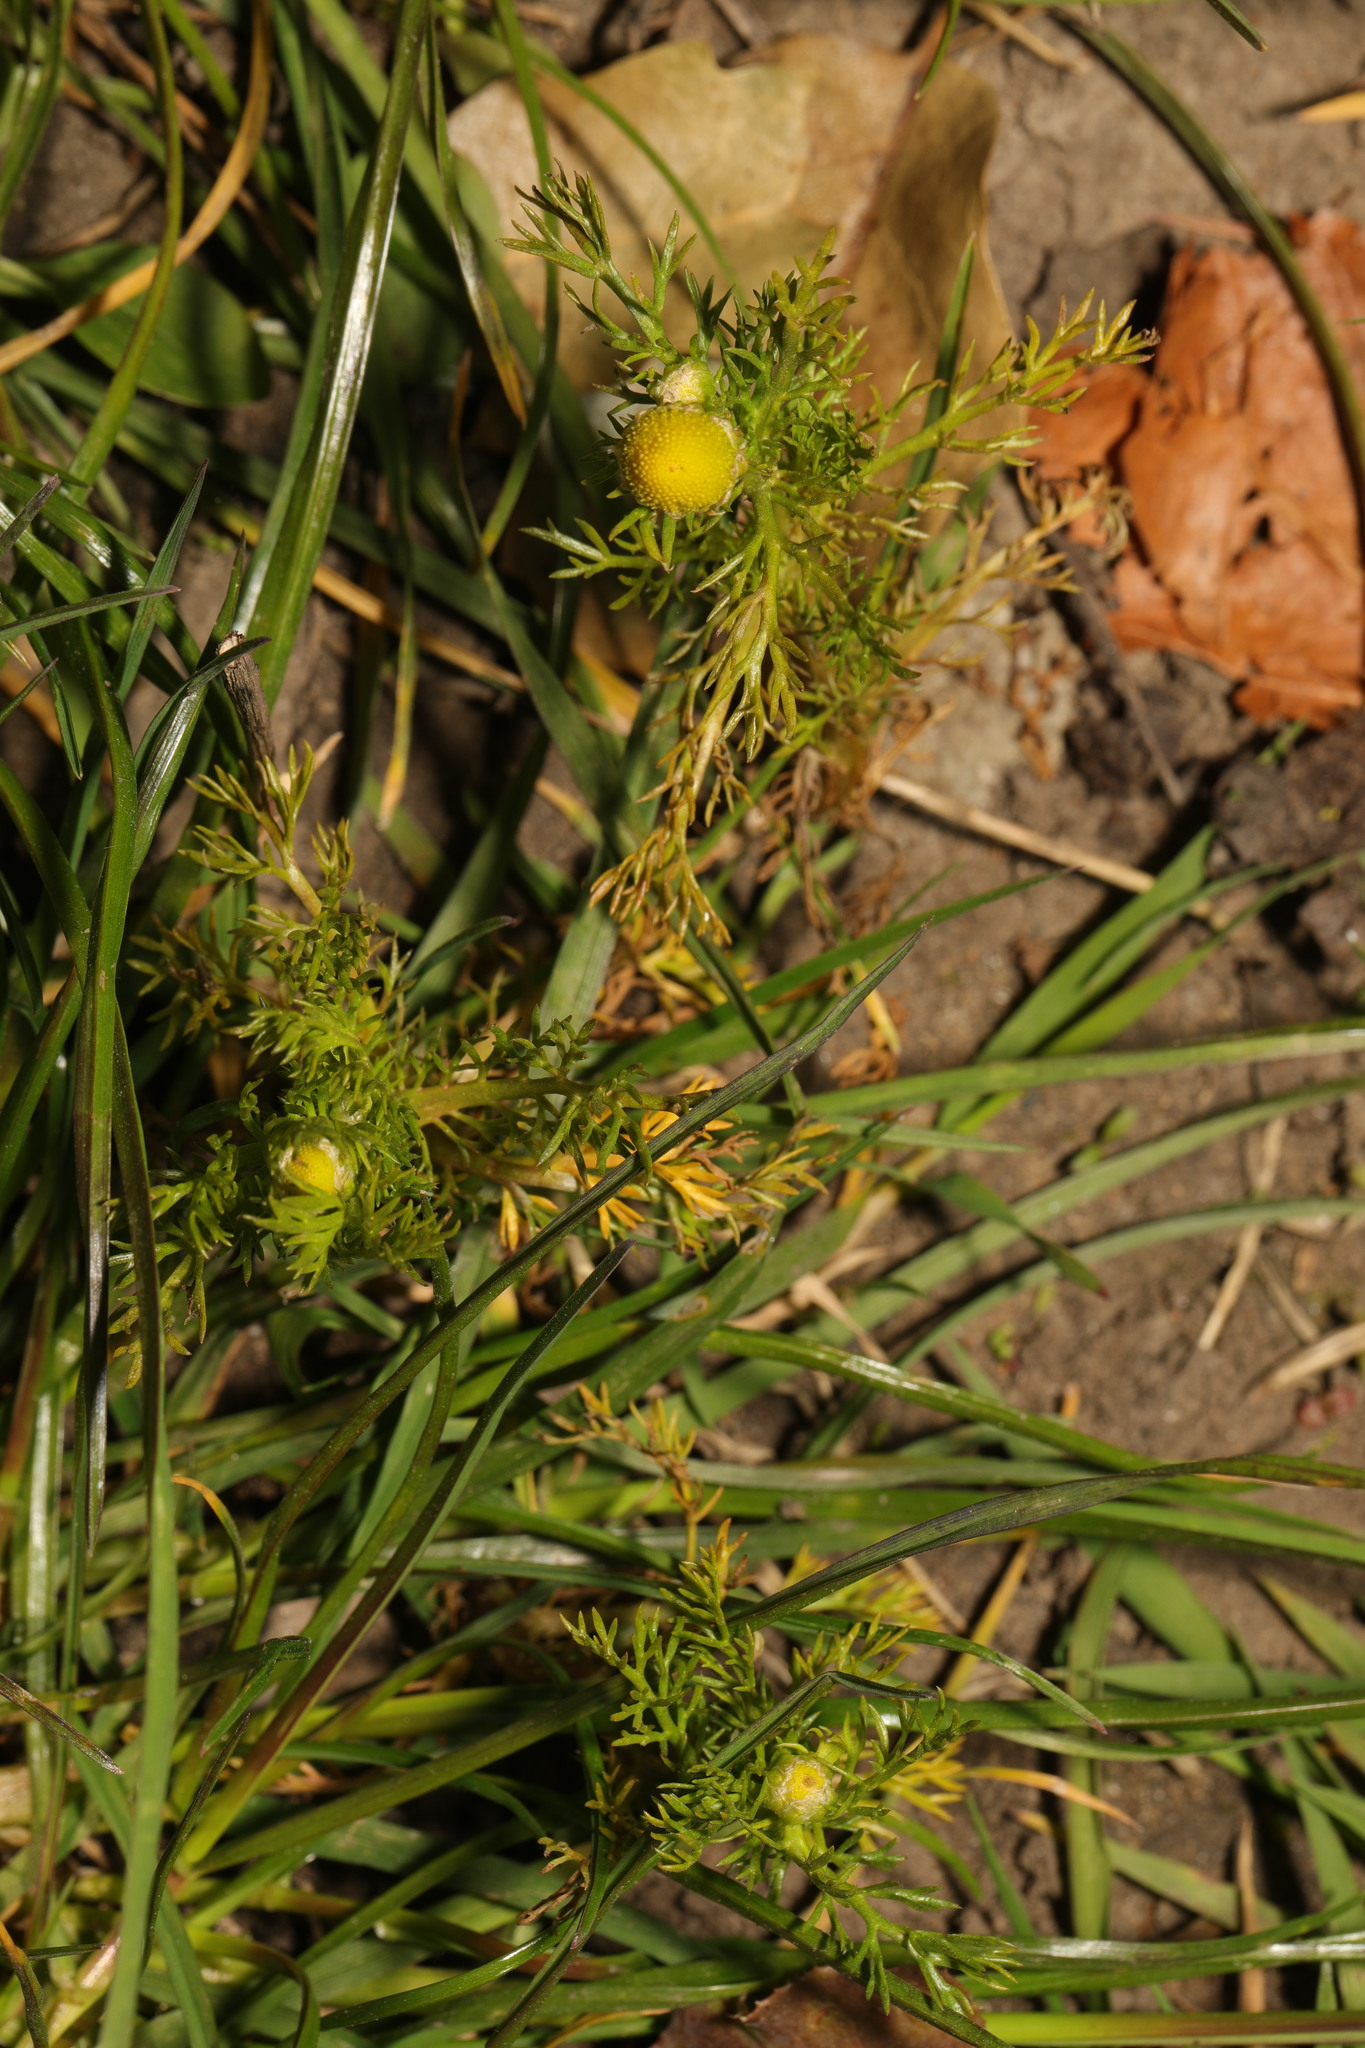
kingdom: Plantae
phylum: Tracheophyta
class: Magnoliopsida
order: Asterales
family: Asteraceae
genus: Matricaria
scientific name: Matricaria discoidea
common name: Disc mayweed
